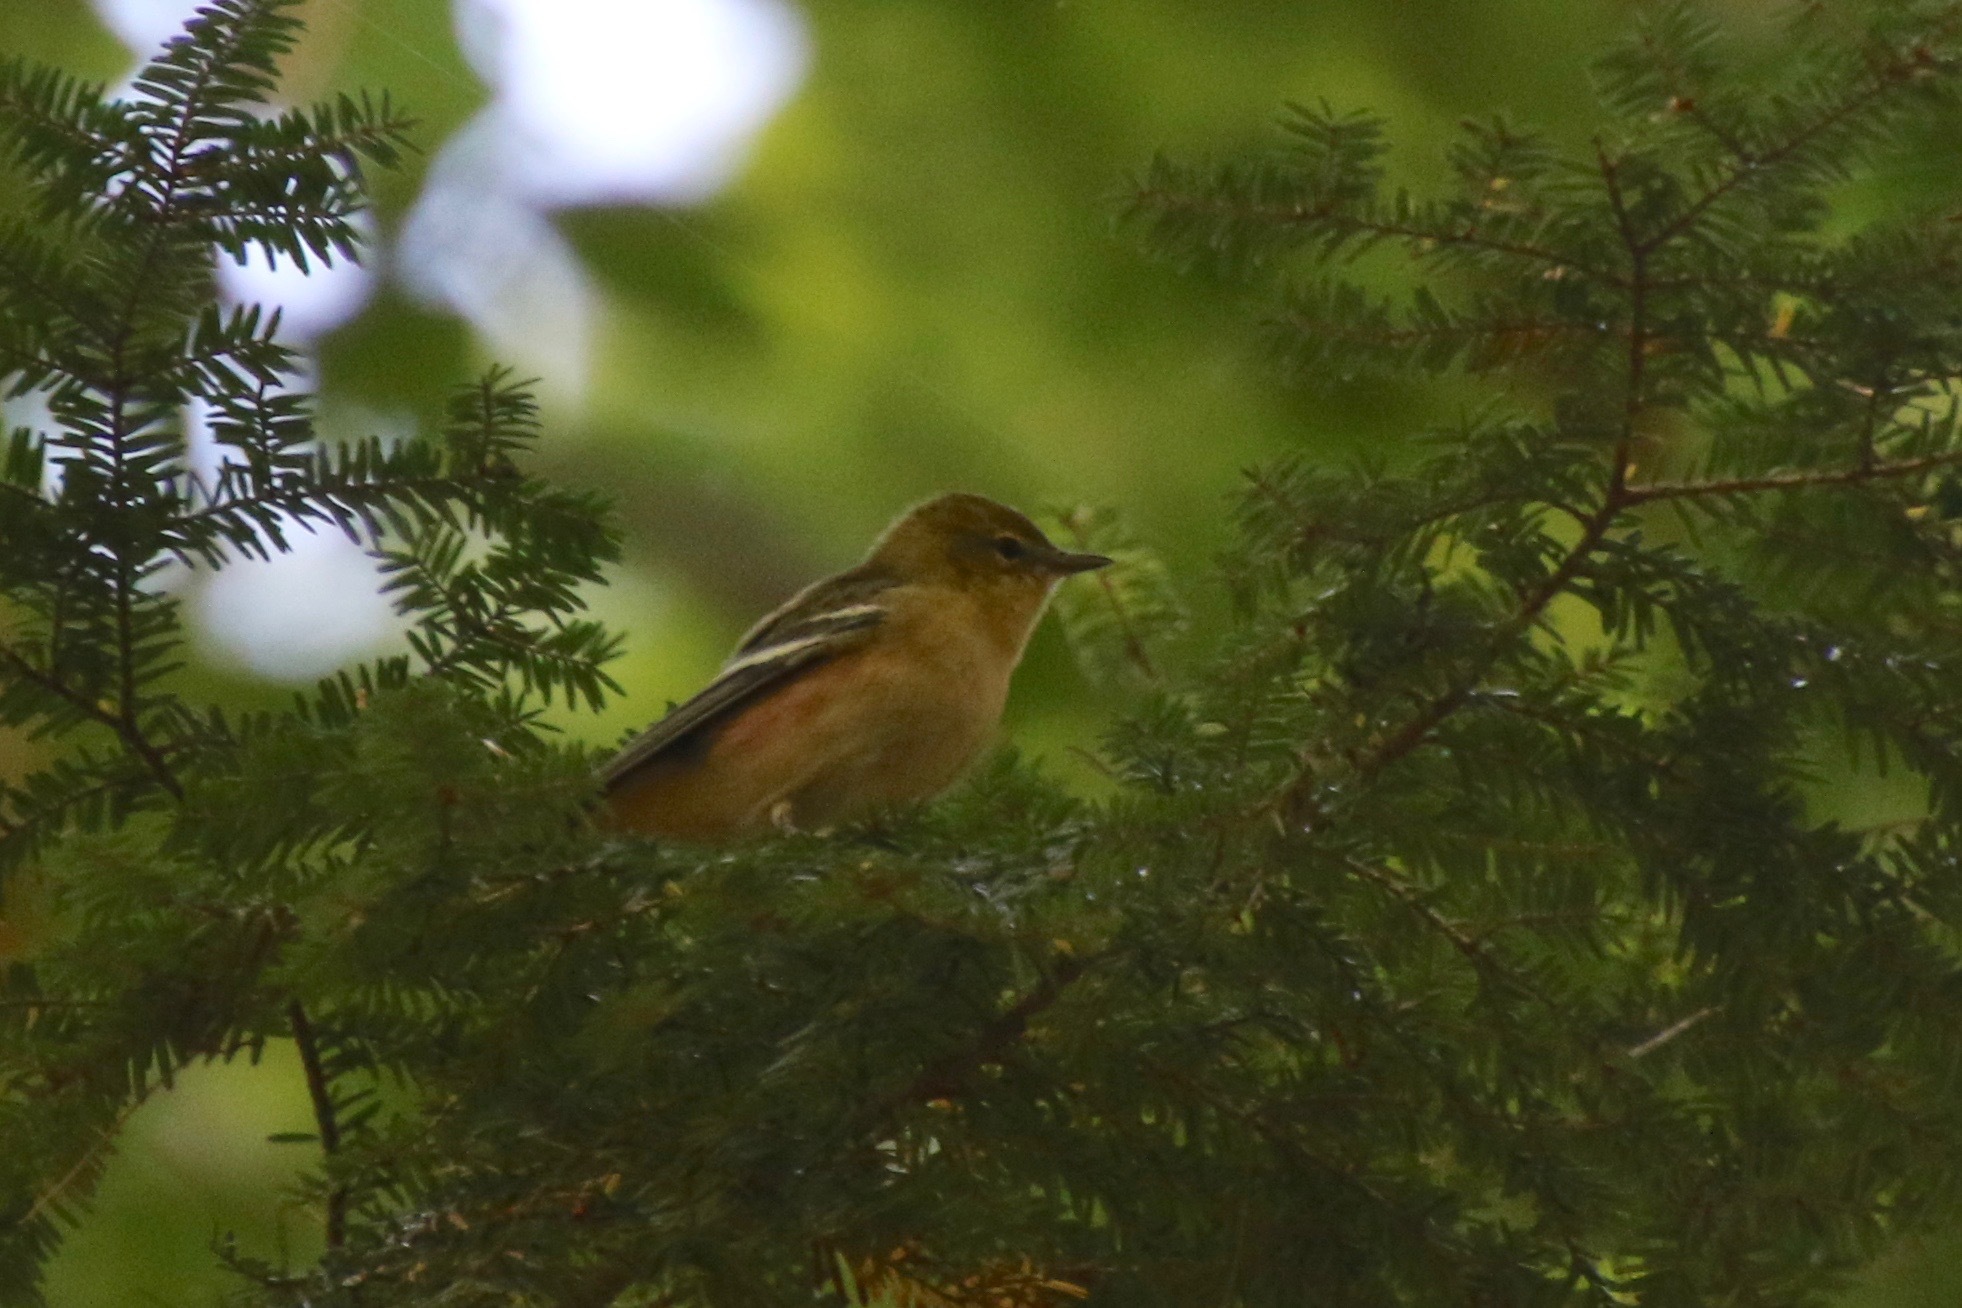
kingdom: Animalia
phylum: Chordata
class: Aves
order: Passeriformes
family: Parulidae
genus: Setophaga
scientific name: Setophaga castanea
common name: Bay-breasted warbler
